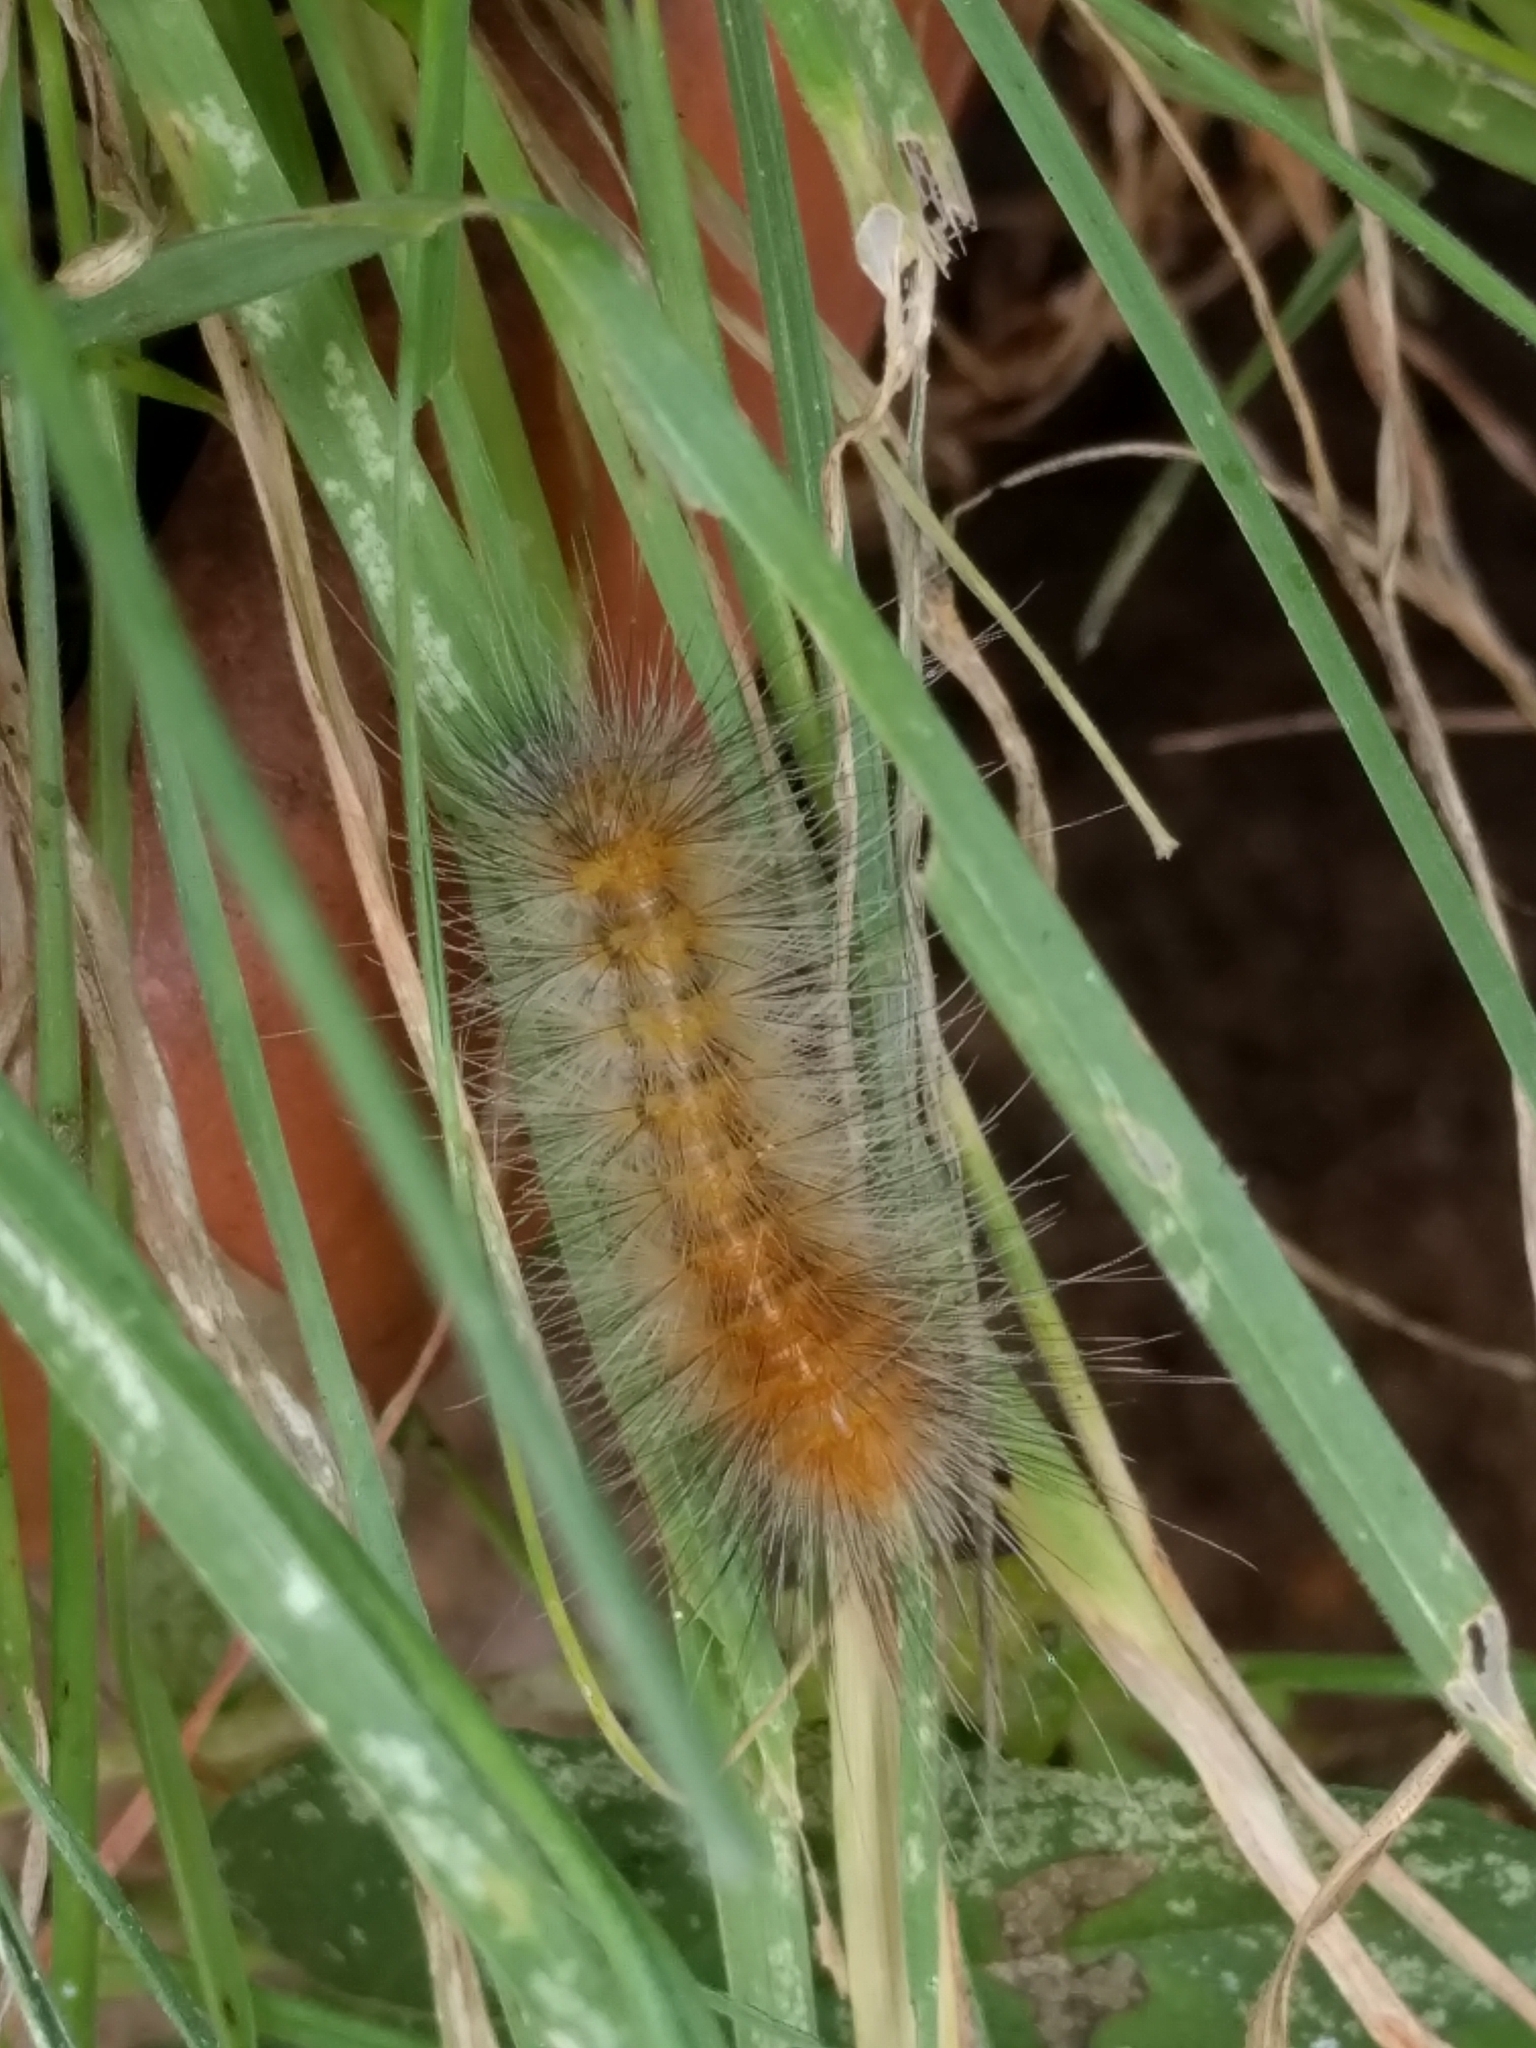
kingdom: Animalia
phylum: Arthropoda
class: Insecta
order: Lepidoptera
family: Erebidae
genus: Spilosoma
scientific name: Spilosoma virginica
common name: Virginia tiger moth
